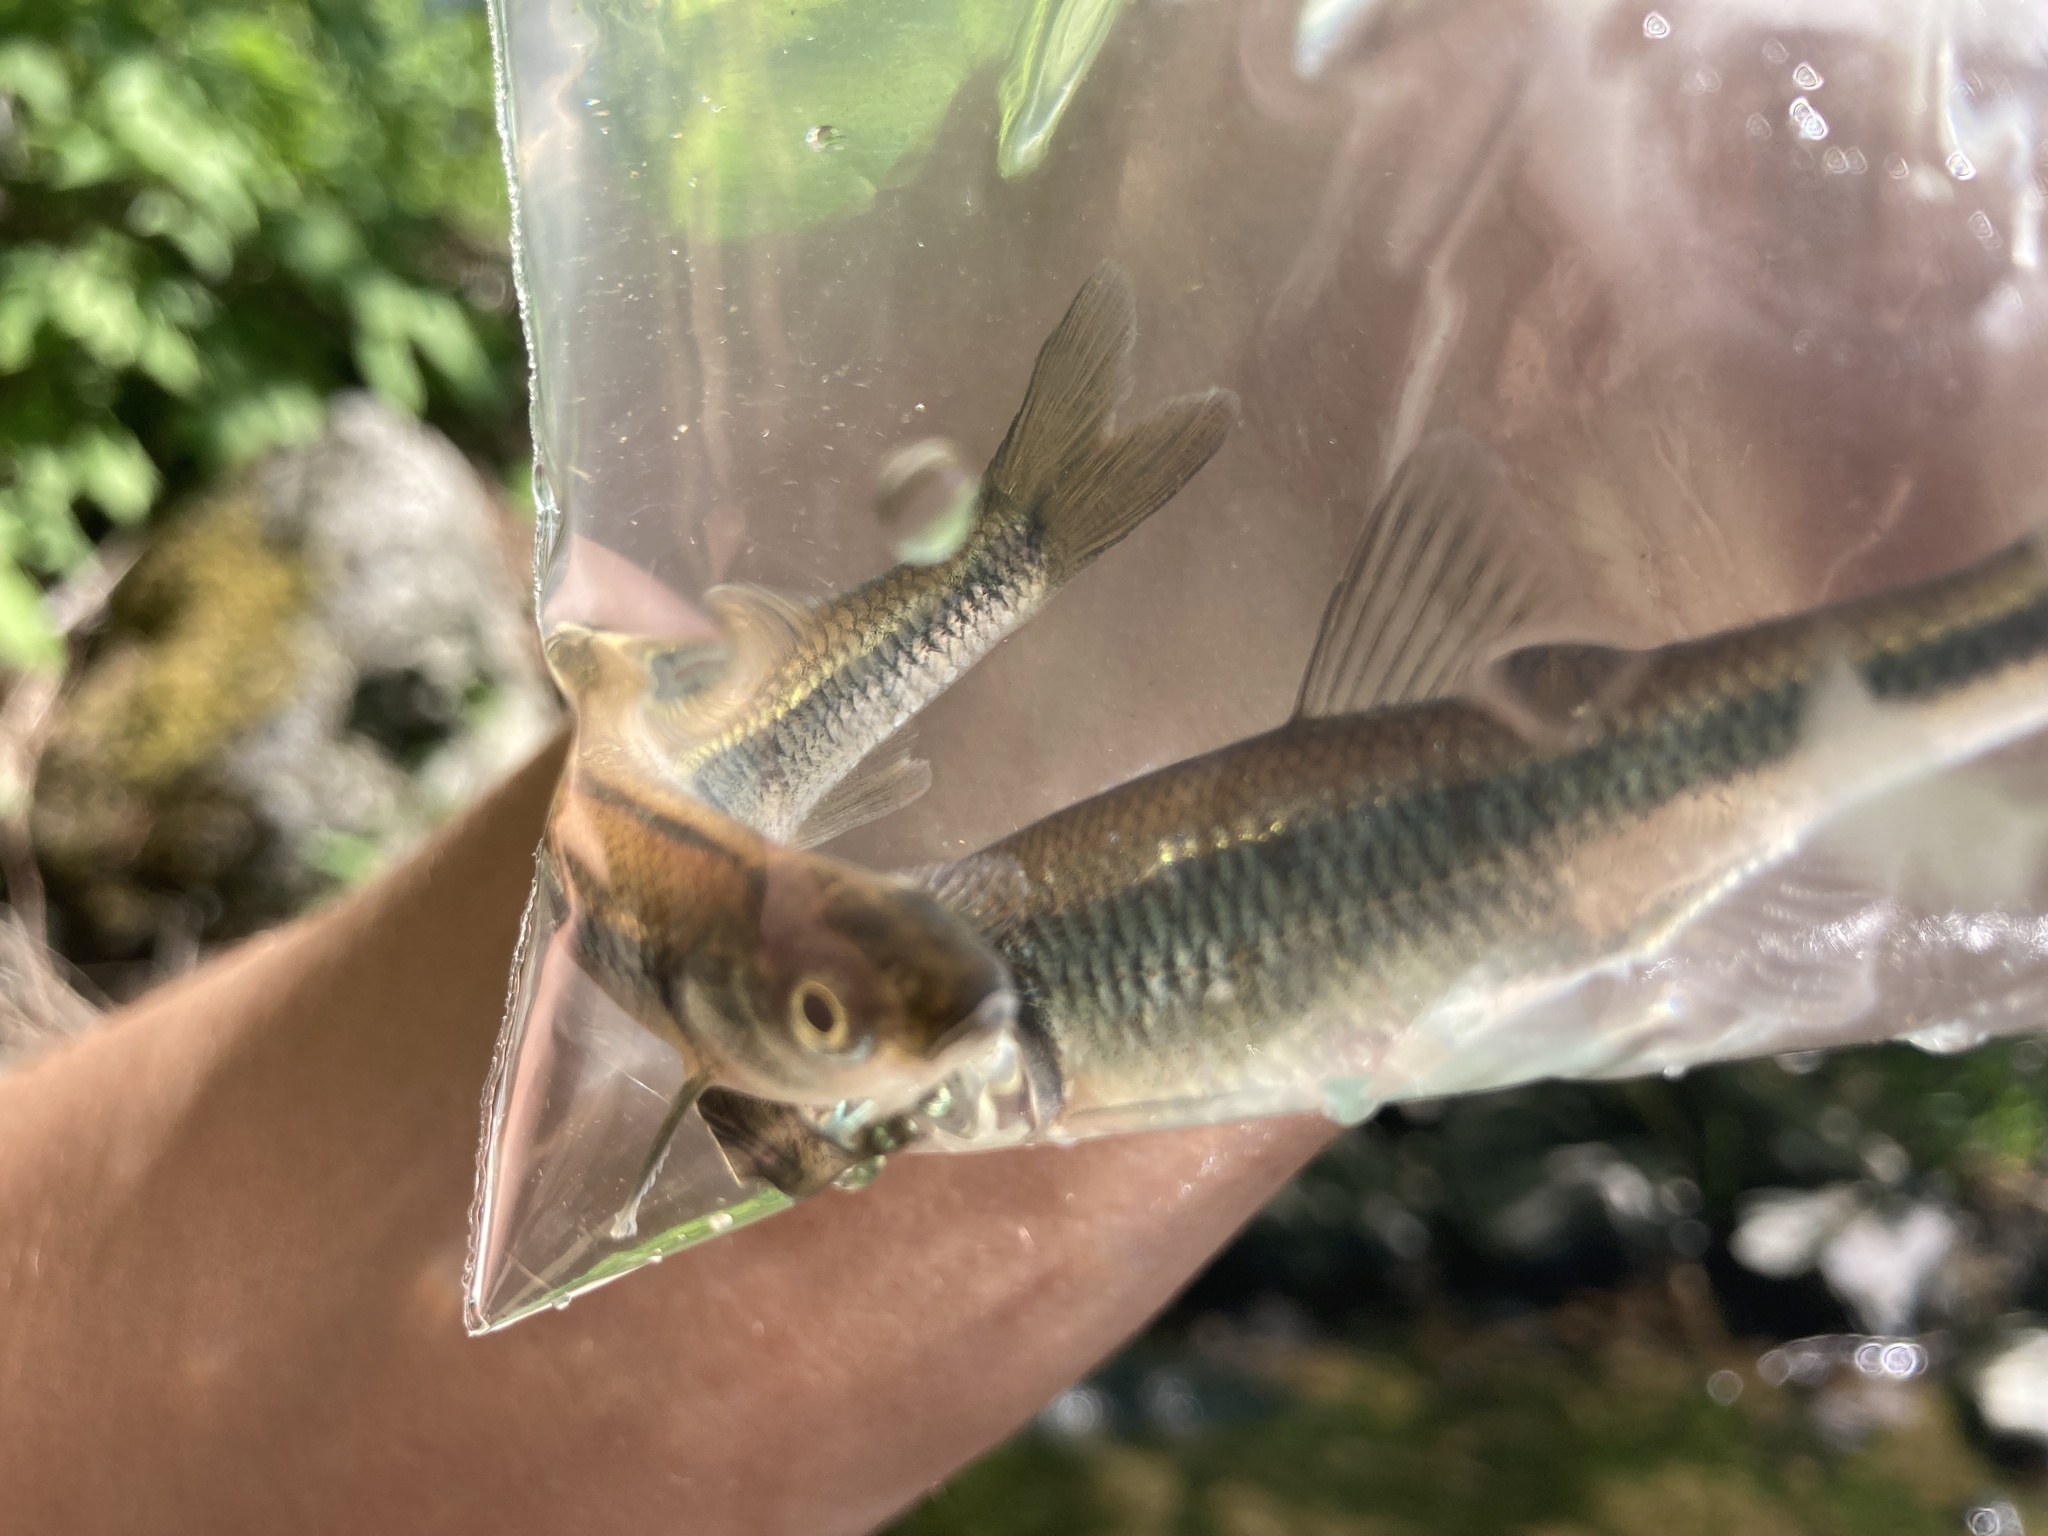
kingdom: Animalia
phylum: Chordata
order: Cypriniformes
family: Cyprinidae
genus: Luxilus
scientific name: Luxilus cornutus
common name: Common shiner
